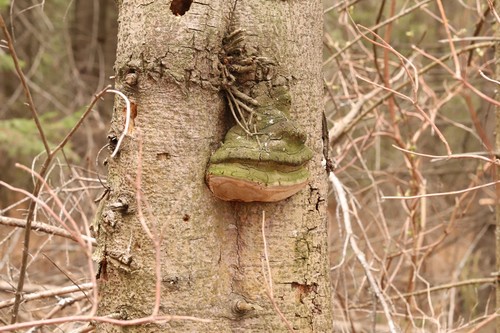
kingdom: Fungi
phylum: Basidiomycota
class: Agaricomycetes
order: Hymenochaetales
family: Hymenochaetaceae
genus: Phellinus
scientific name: Phellinus hartigii
